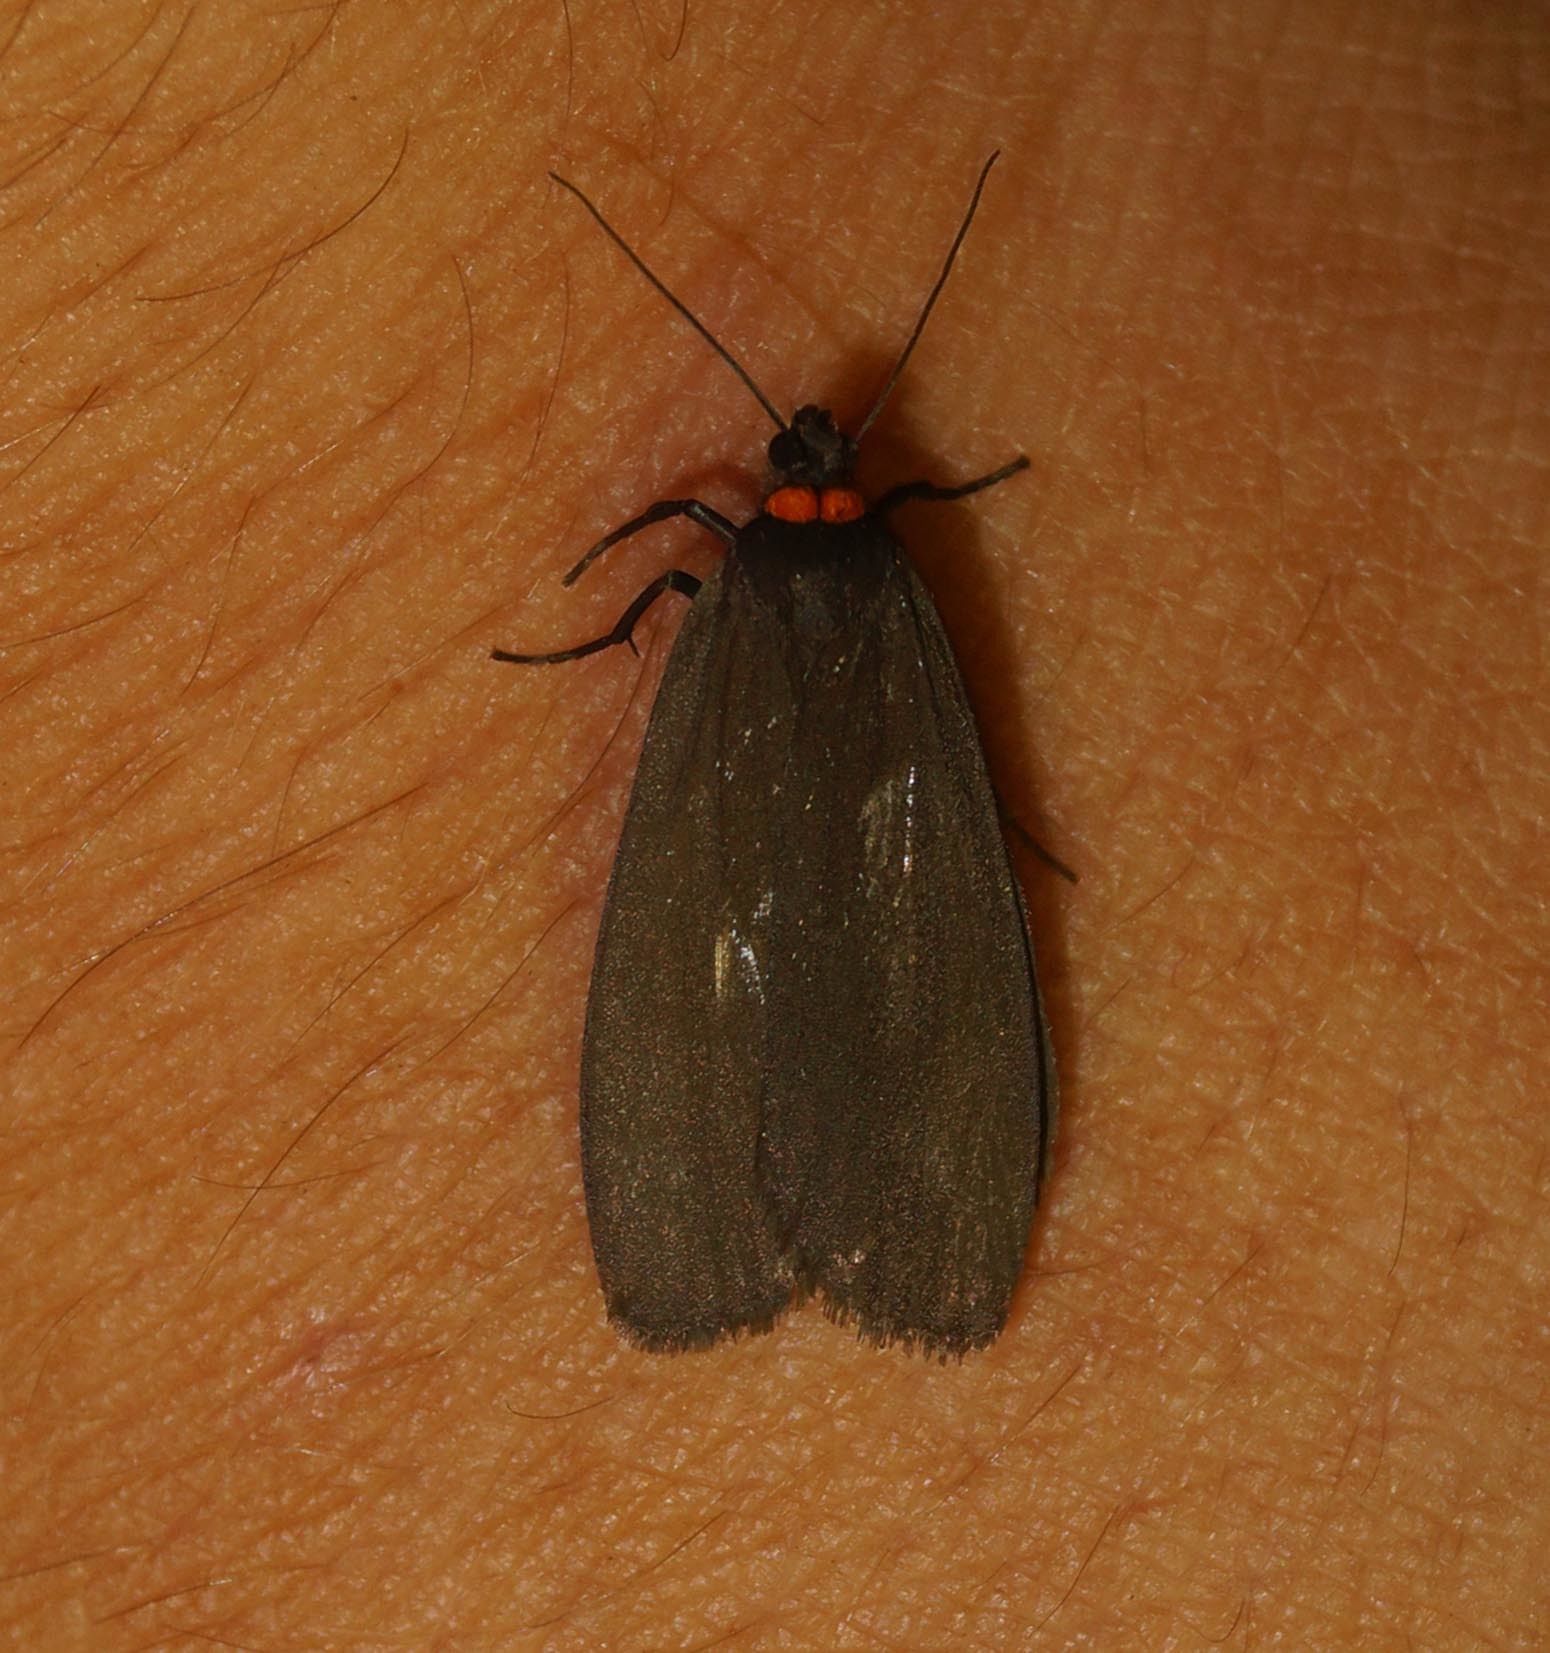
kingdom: Animalia
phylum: Arthropoda
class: Insecta
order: Lepidoptera
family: Erebidae
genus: Atolmis
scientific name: Atolmis rubricollis
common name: Red-necked footman
